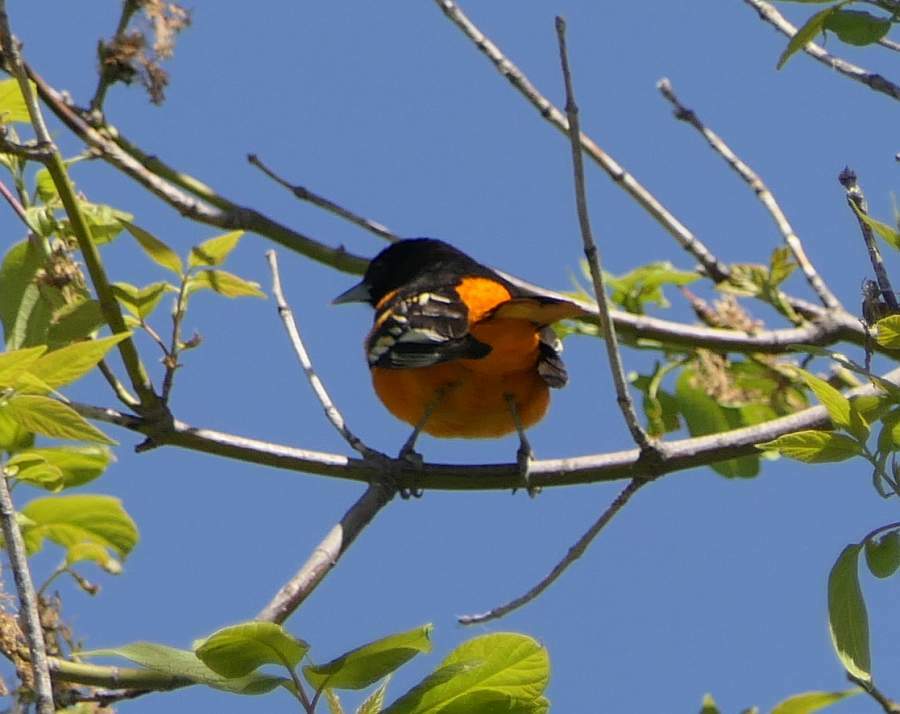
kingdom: Animalia
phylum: Chordata
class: Aves
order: Passeriformes
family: Icteridae
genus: Icterus
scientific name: Icterus galbula
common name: Baltimore oriole
